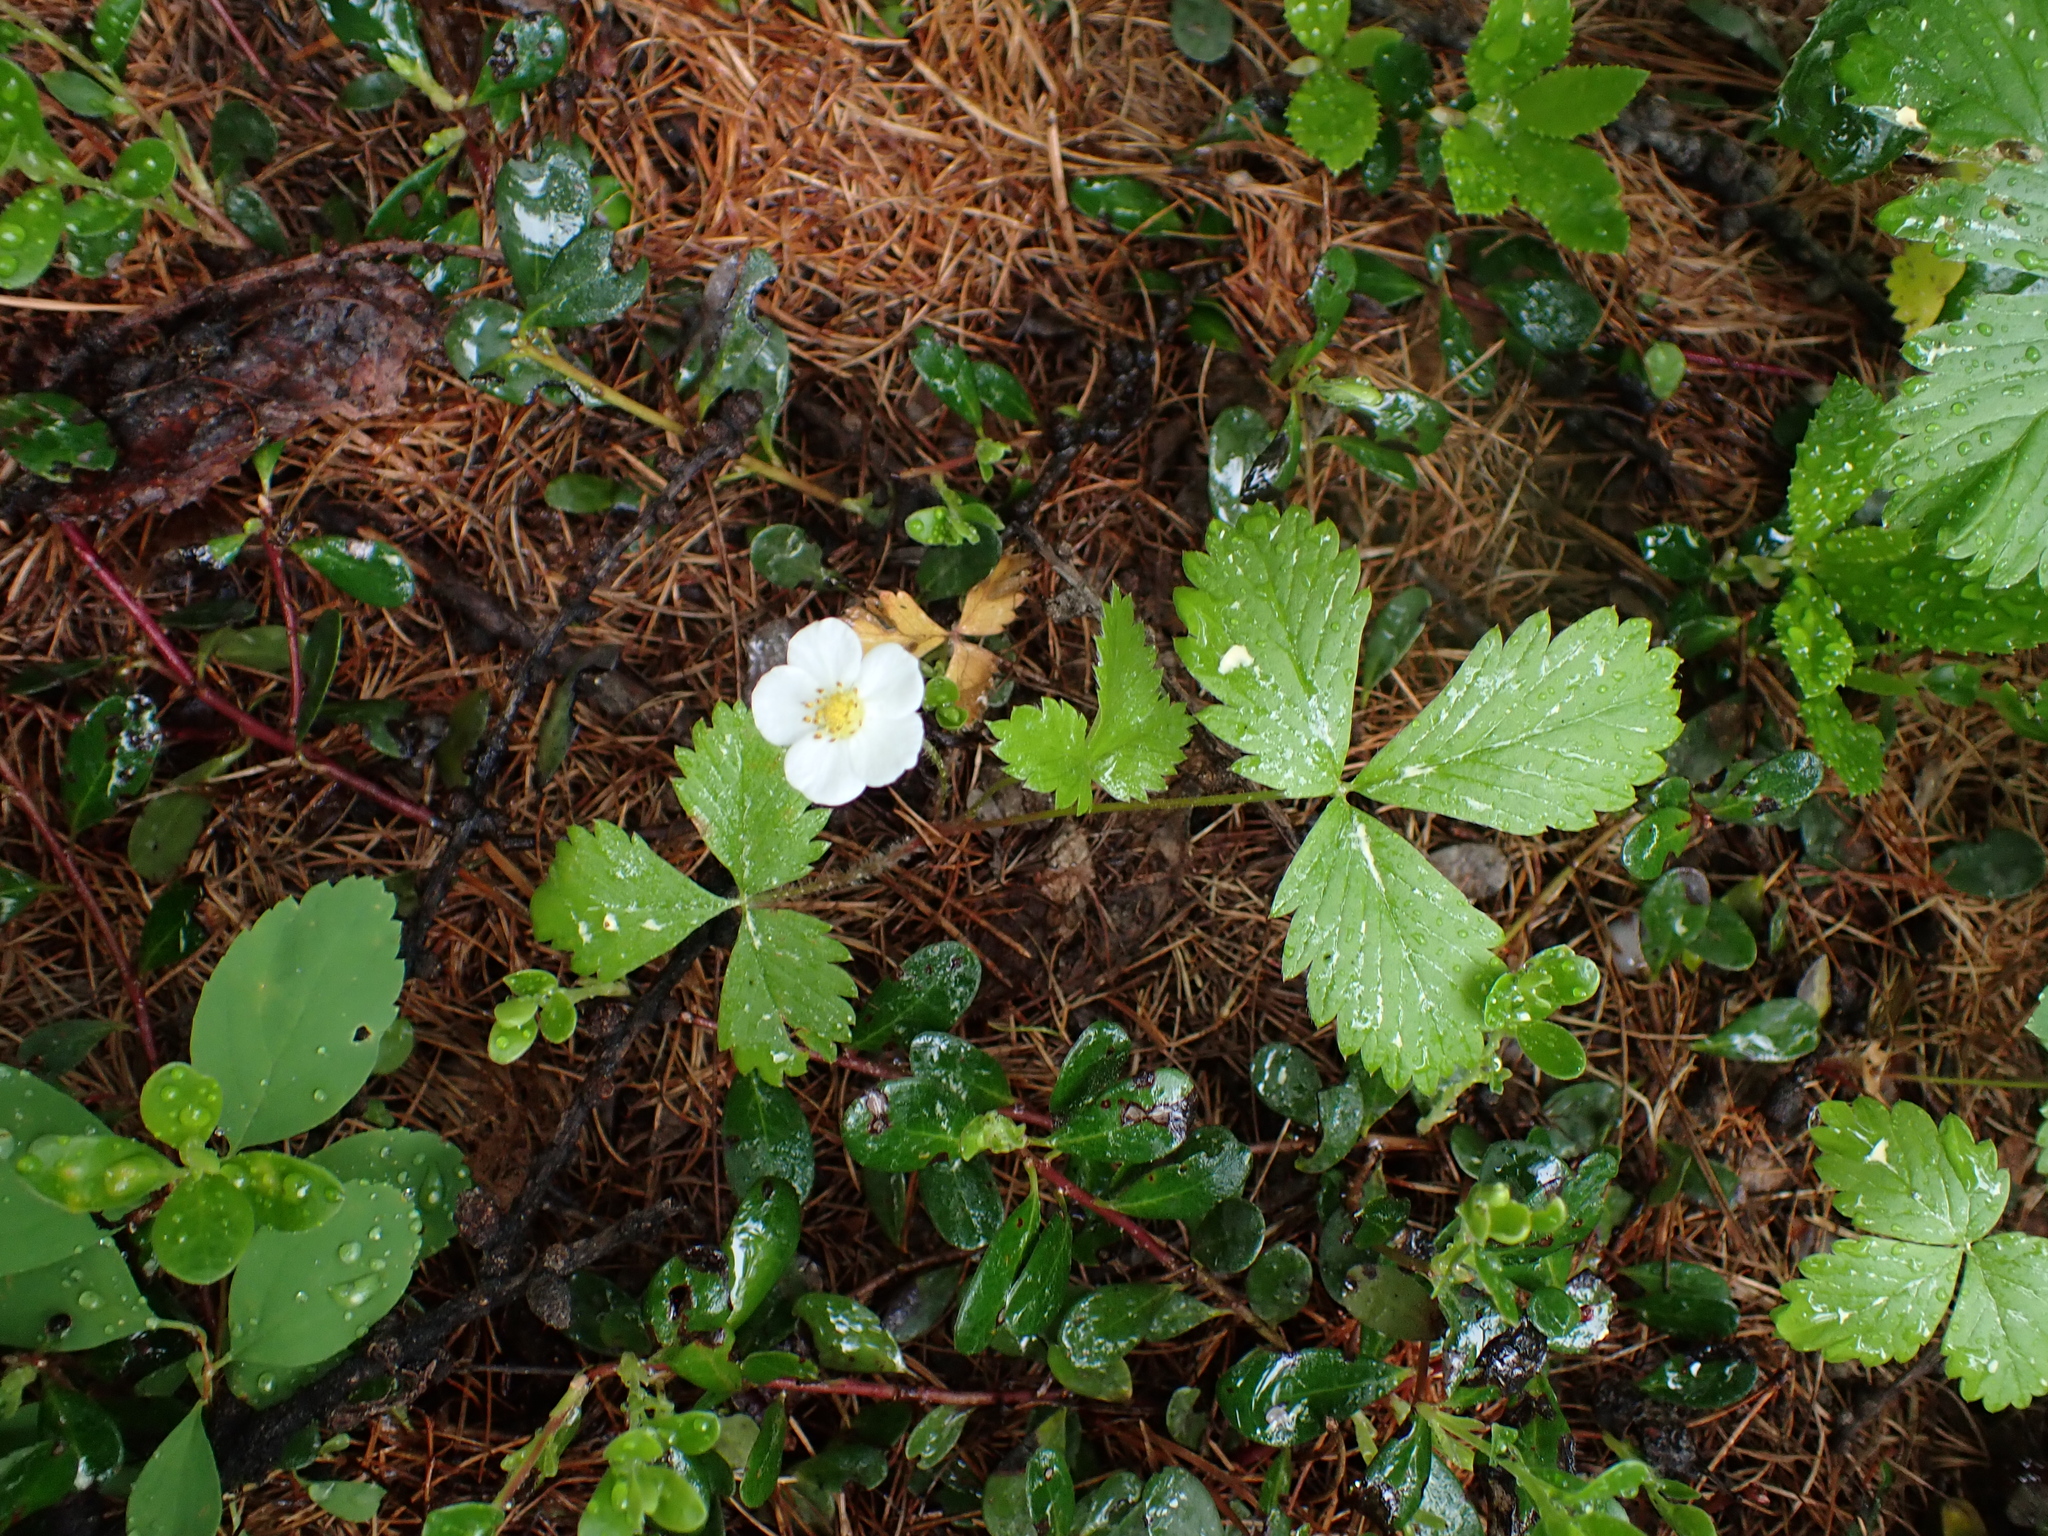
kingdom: Plantae
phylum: Tracheophyta
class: Magnoliopsida
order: Rosales
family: Rosaceae
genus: Fragaria
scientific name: Fragaria vesca
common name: Wild strawberry
